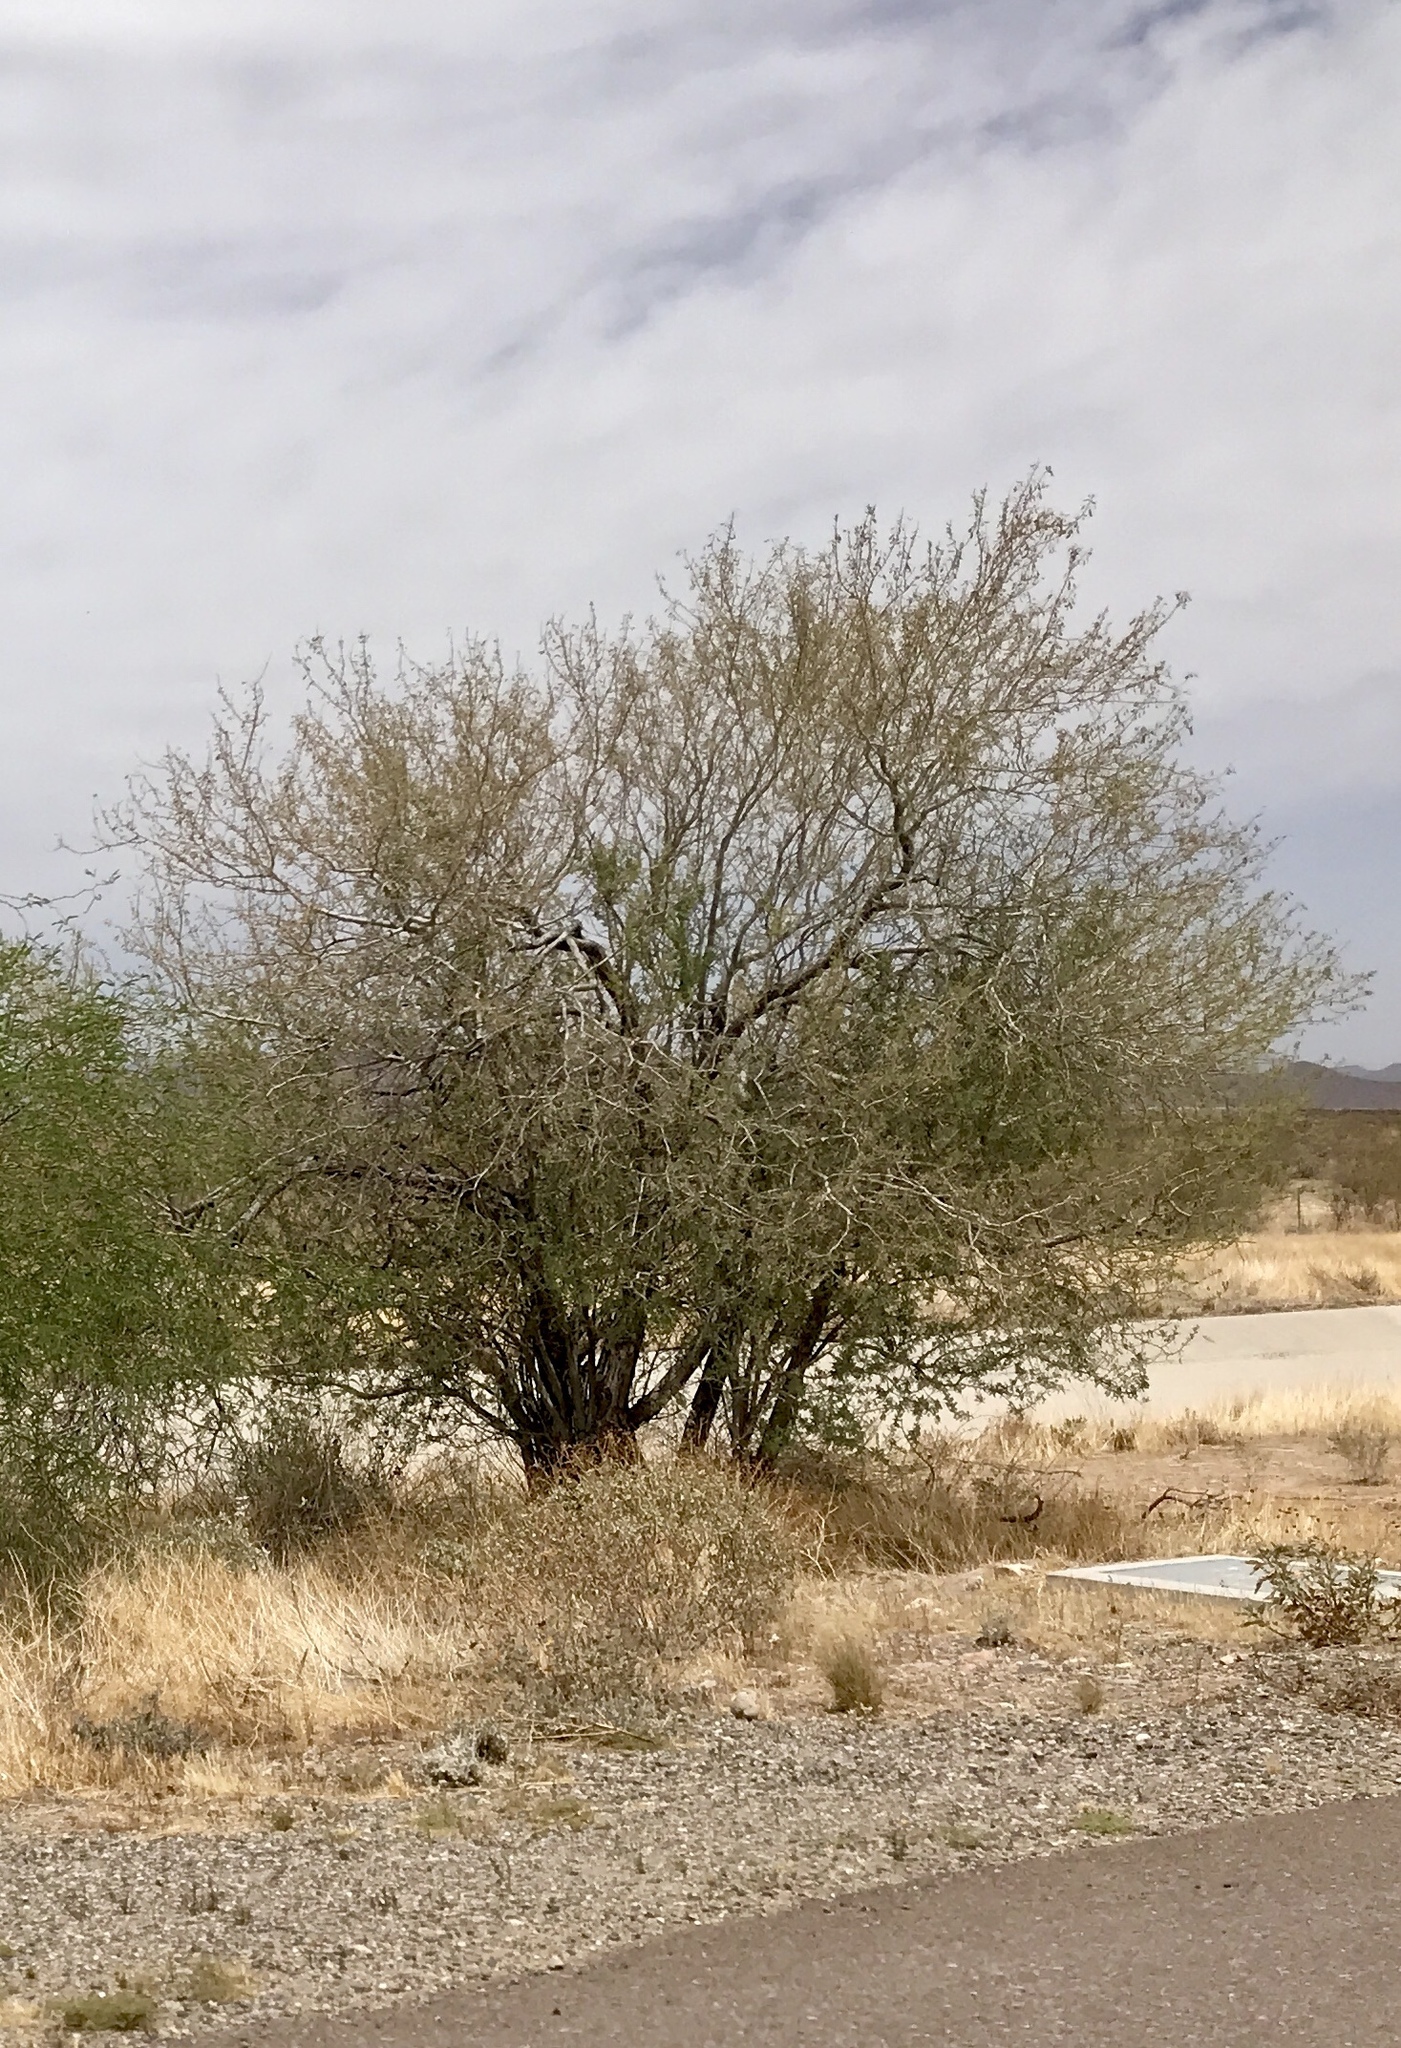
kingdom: Plantae
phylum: Tracheophyta
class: Magnoliopsida
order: Fabales
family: Fabaceae
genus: Olneya
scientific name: Olneya tesota
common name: Desert ironwood
